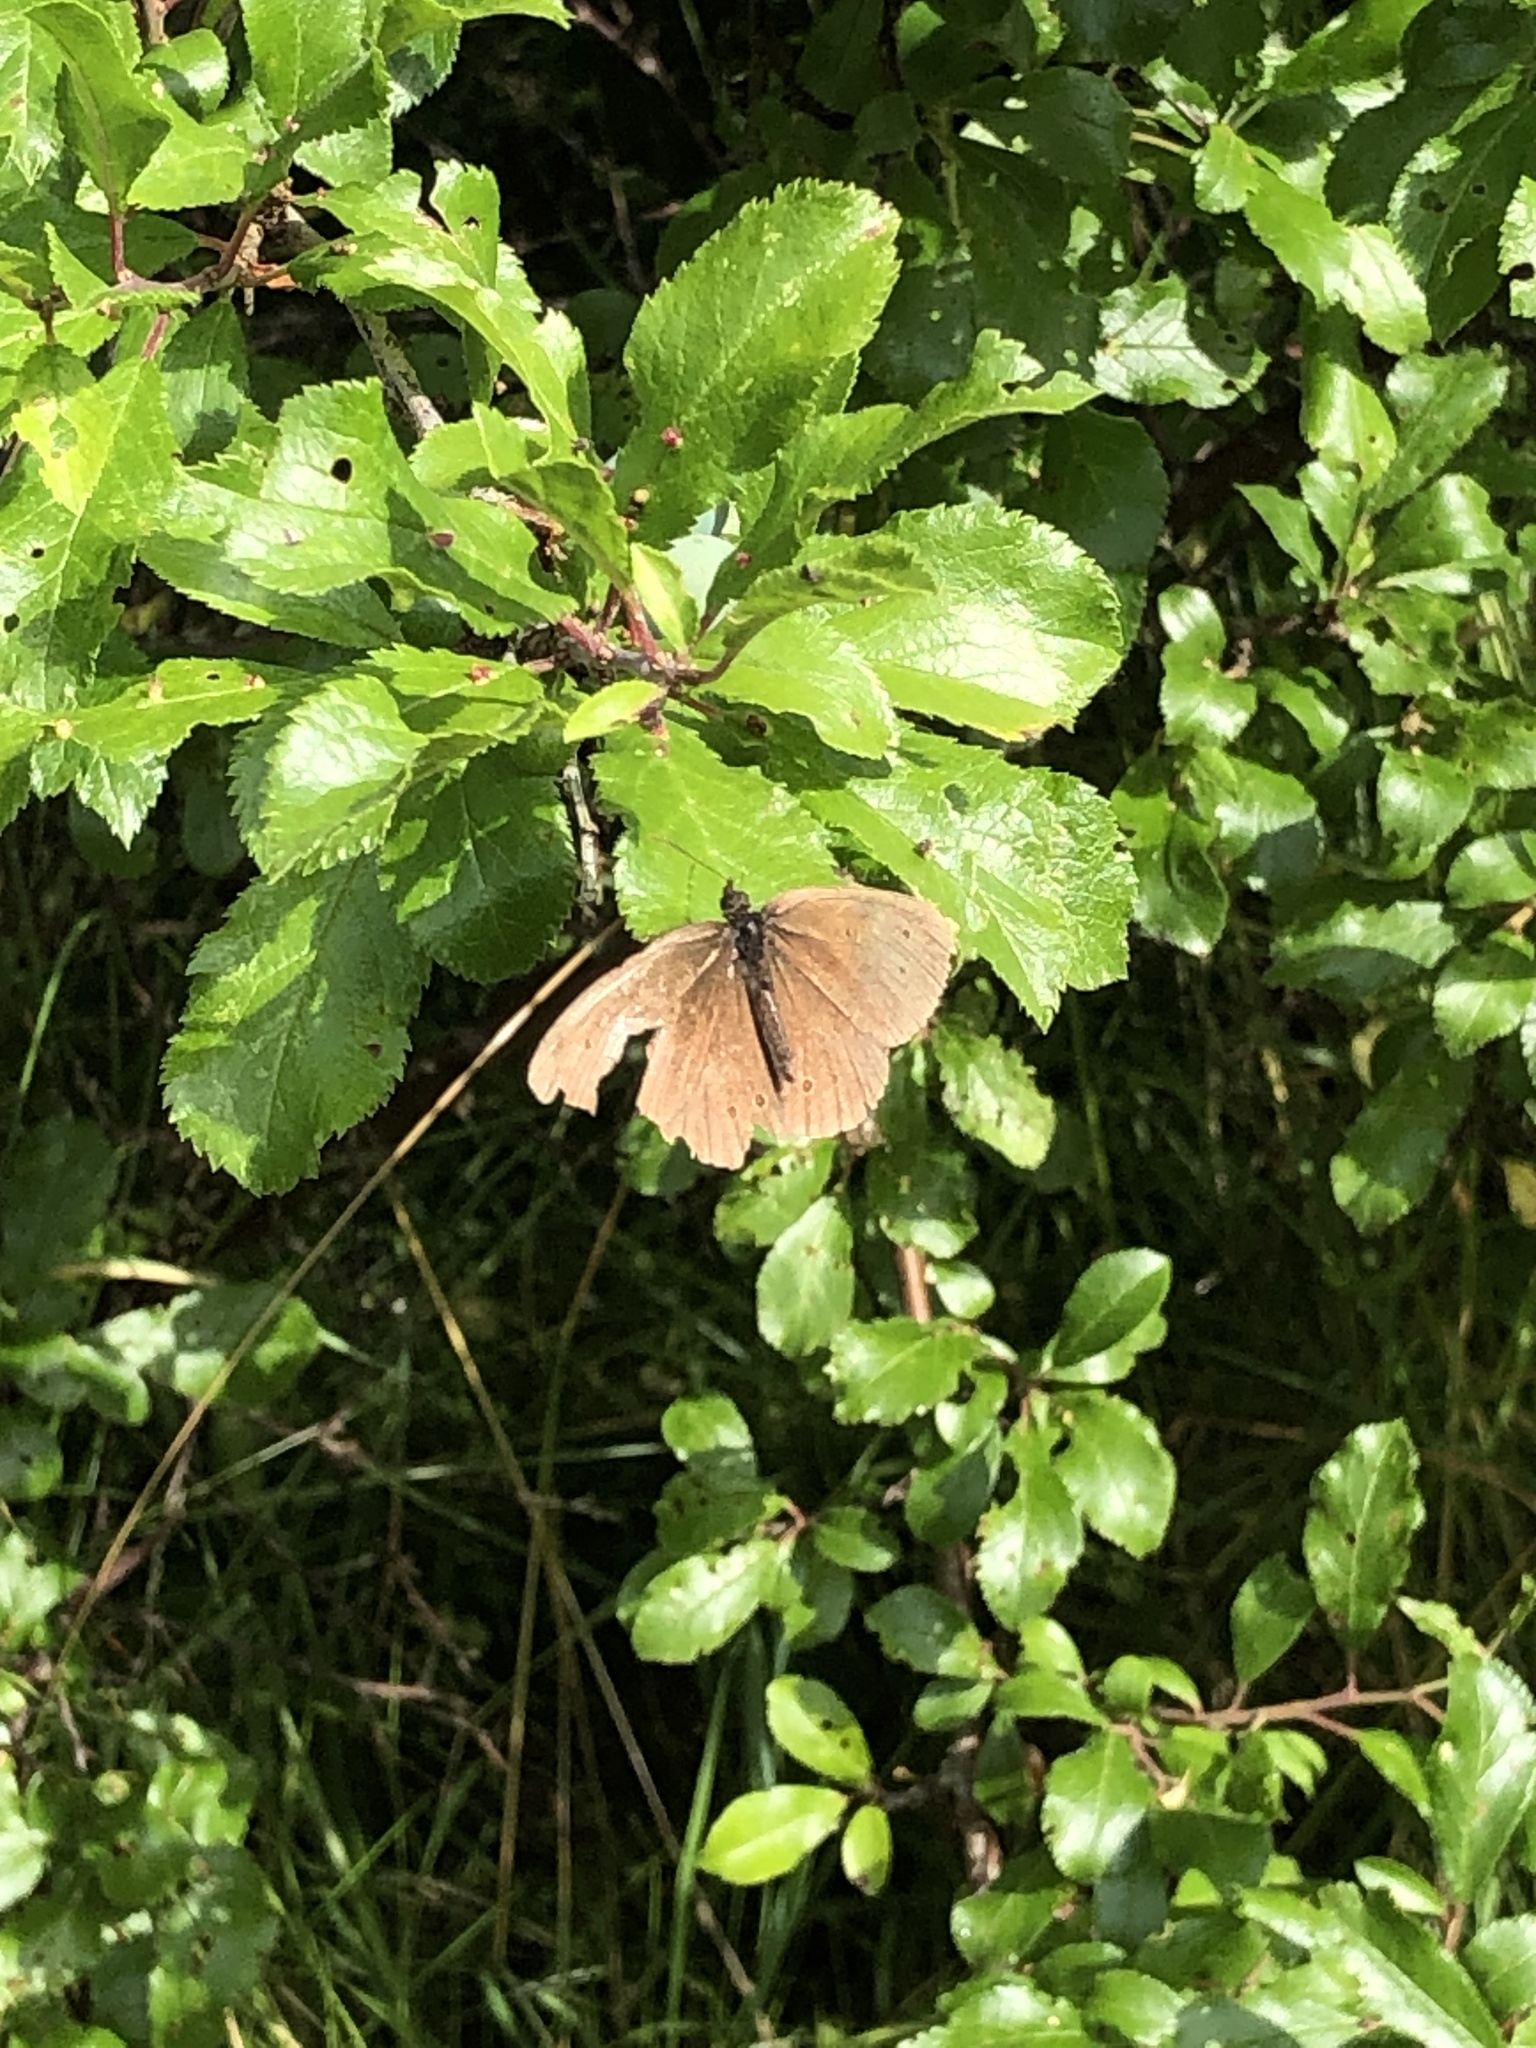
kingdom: Animalia
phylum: Arthropoda
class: Insecta
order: Lepidoptera
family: Nymphalidae
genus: Aphantopus
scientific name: Aphantopus hyperantus
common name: Ringlet
